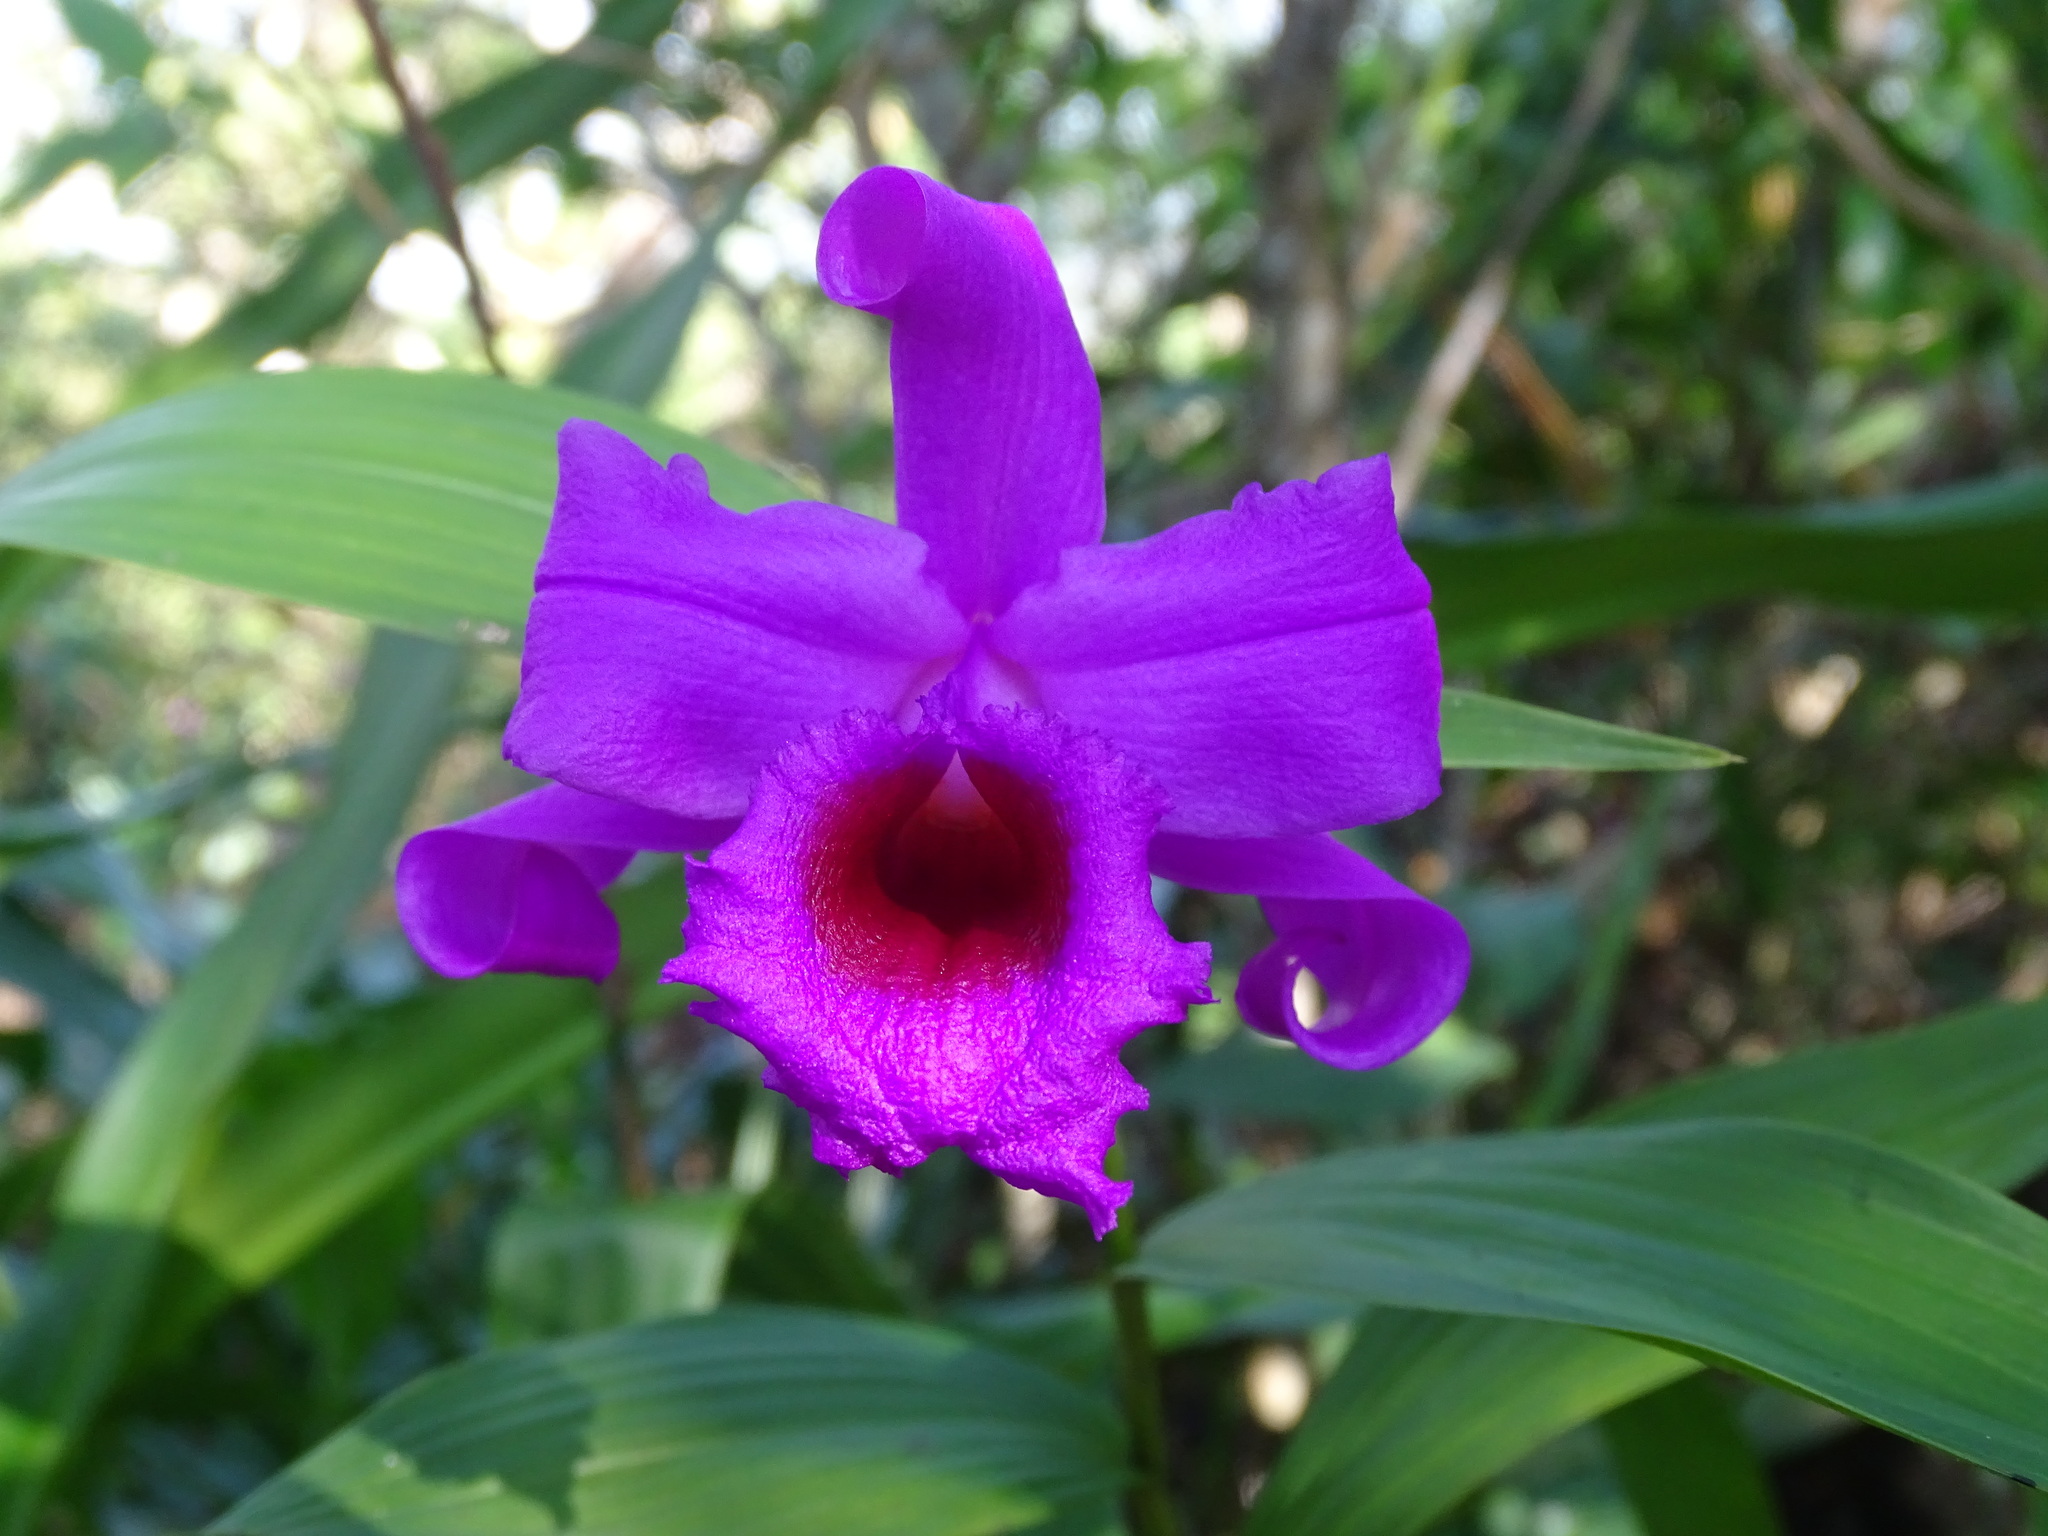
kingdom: Plantae
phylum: Tracheophyta
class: Liliopsida
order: Asparagales
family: Orchidaceae
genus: Sobralia
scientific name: Sobralia macdougallii
